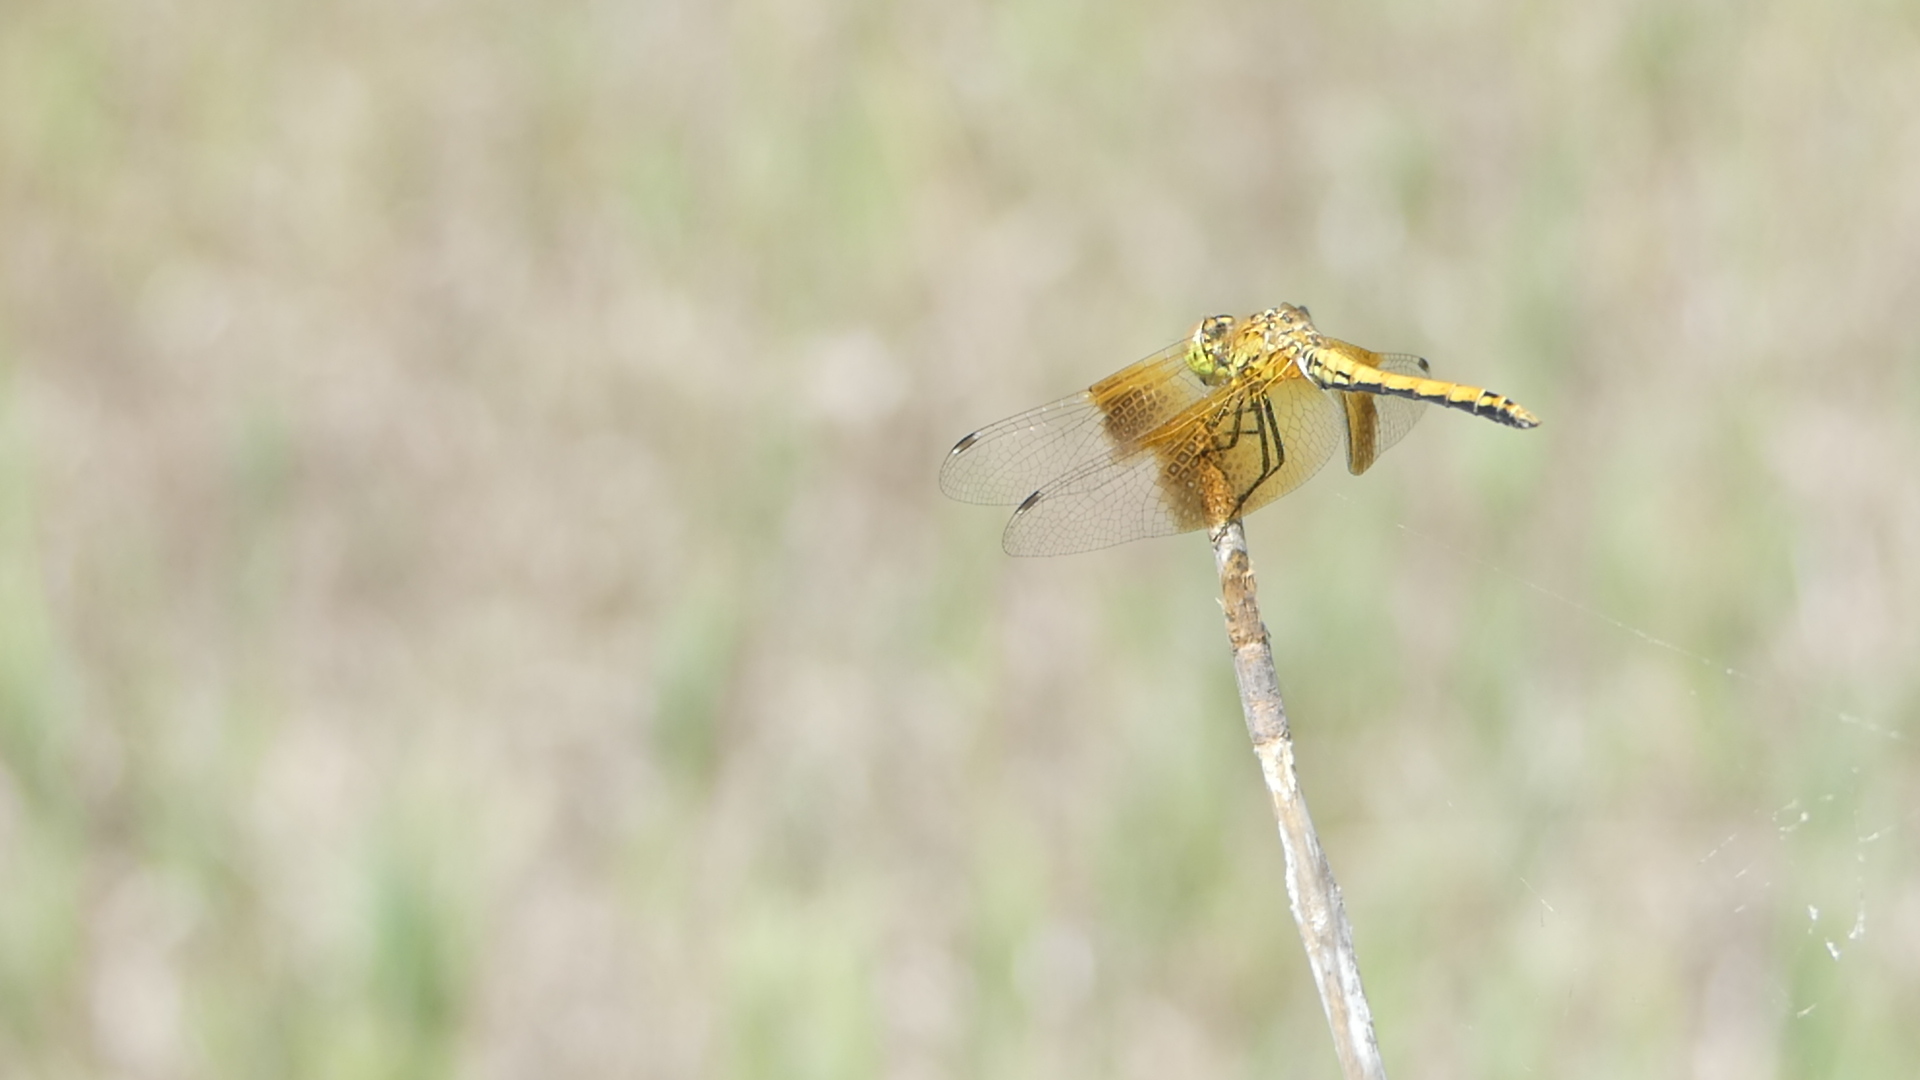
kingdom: Animalia
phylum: Arthropoda
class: Insecta
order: Odonata
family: Libellulidae
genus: Sympetrum
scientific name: Sympetrum semicinctum
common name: Band-winged meadowhawk
